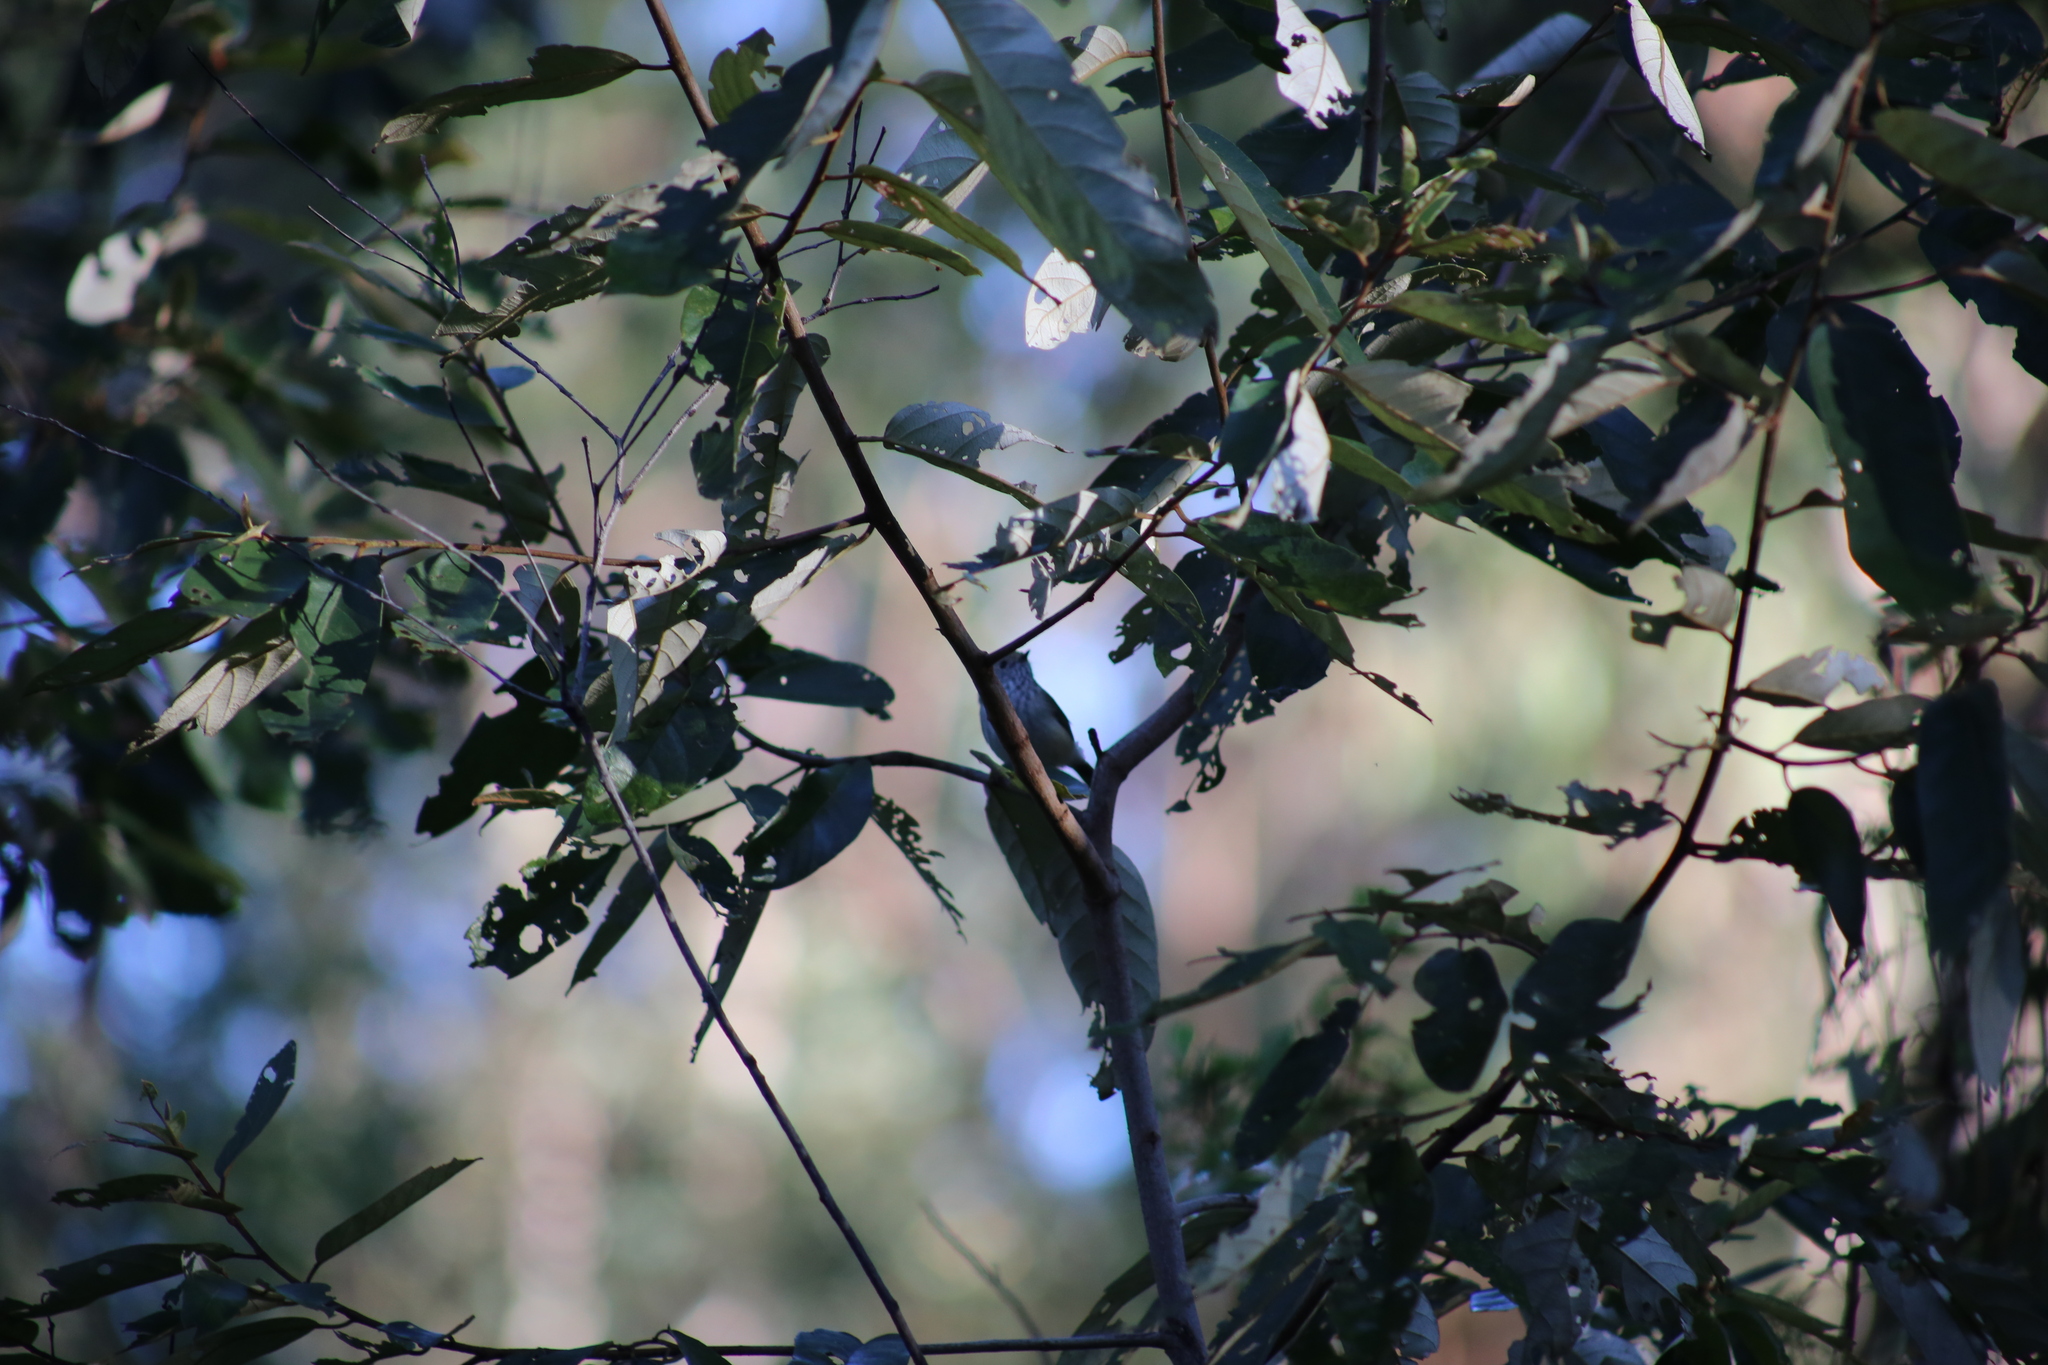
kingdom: Animalia
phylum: Chordata
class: Aves
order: Passeriformes
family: Acanthizidae
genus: Acanthiza
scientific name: Acanthiza pusilla
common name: Brown thornbill
